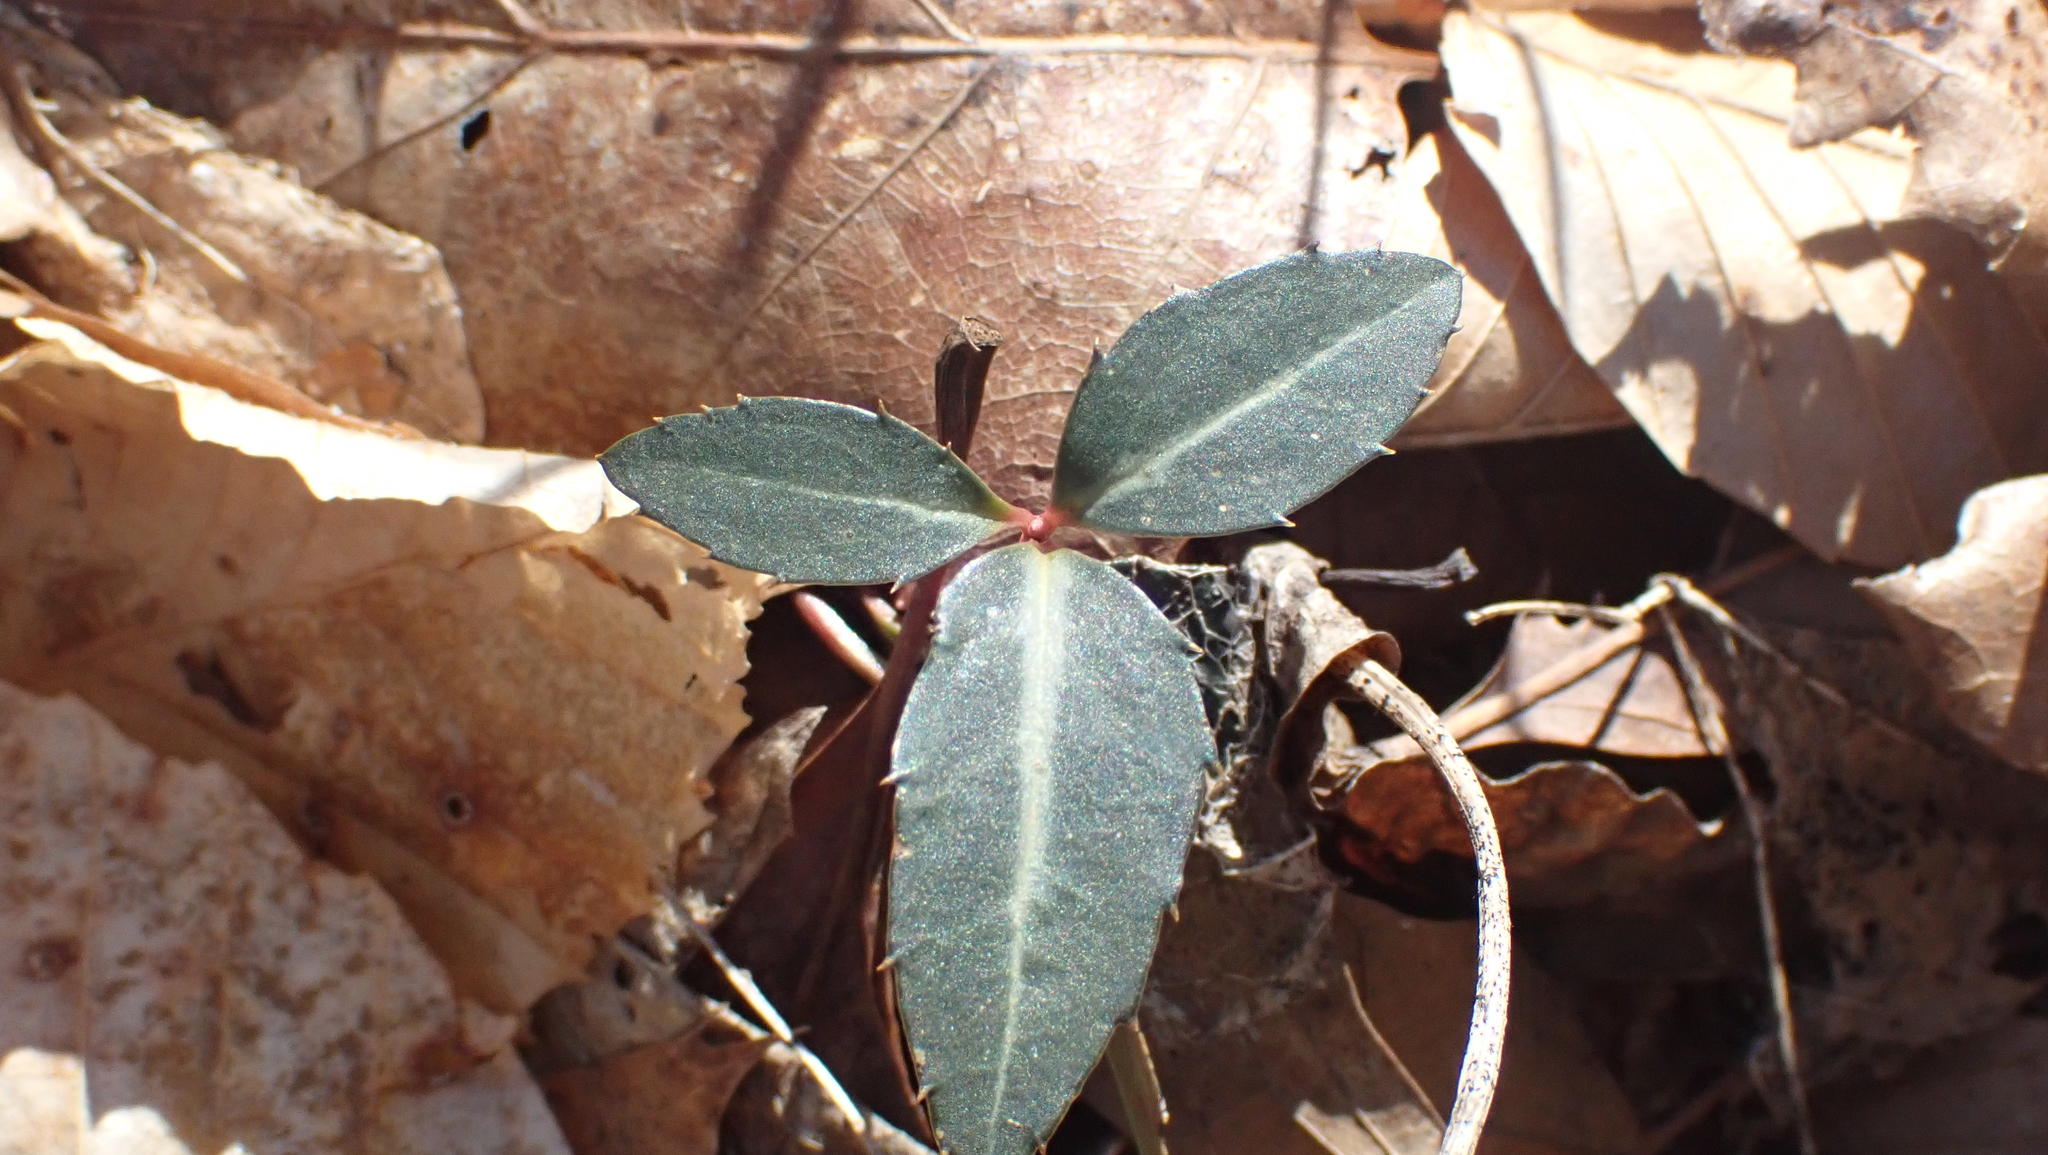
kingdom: Plantae
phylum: Tracheophyta
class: Magnoliopsida
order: Ericales
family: Ericaceae
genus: Chimaphila
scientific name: Chimaphila maculata
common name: Spotted pipsissewa
